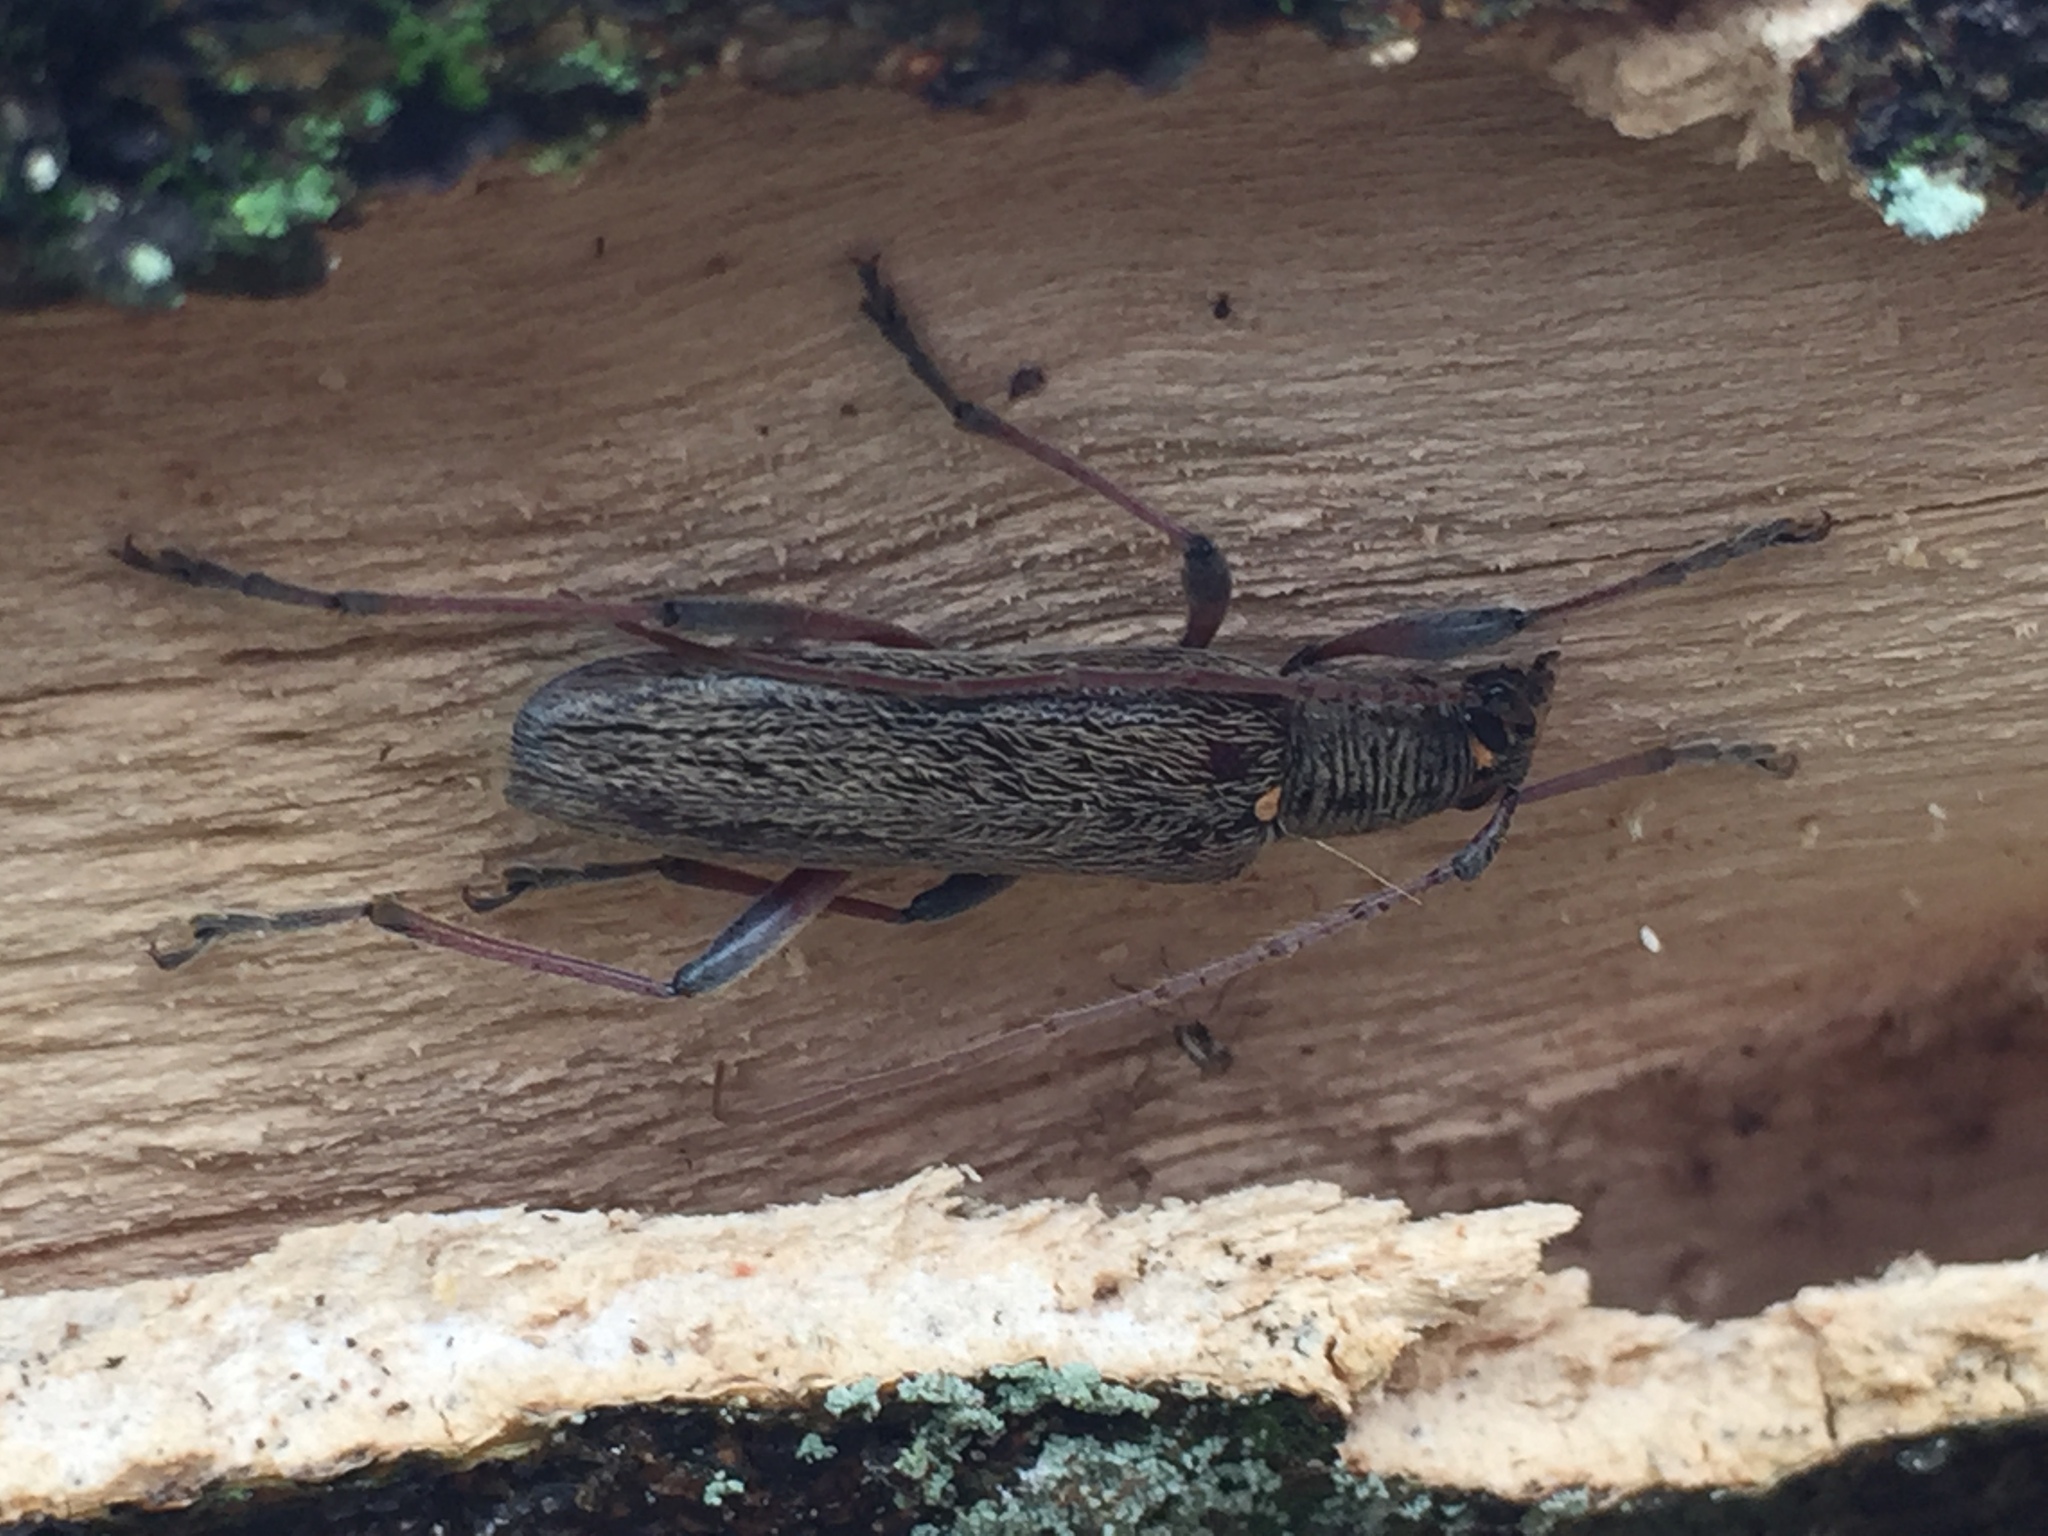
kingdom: Animalia
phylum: Arthropoda
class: Insecta
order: Coleoptera
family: Cerambycidae
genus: Oemona
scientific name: Oemona hirta
